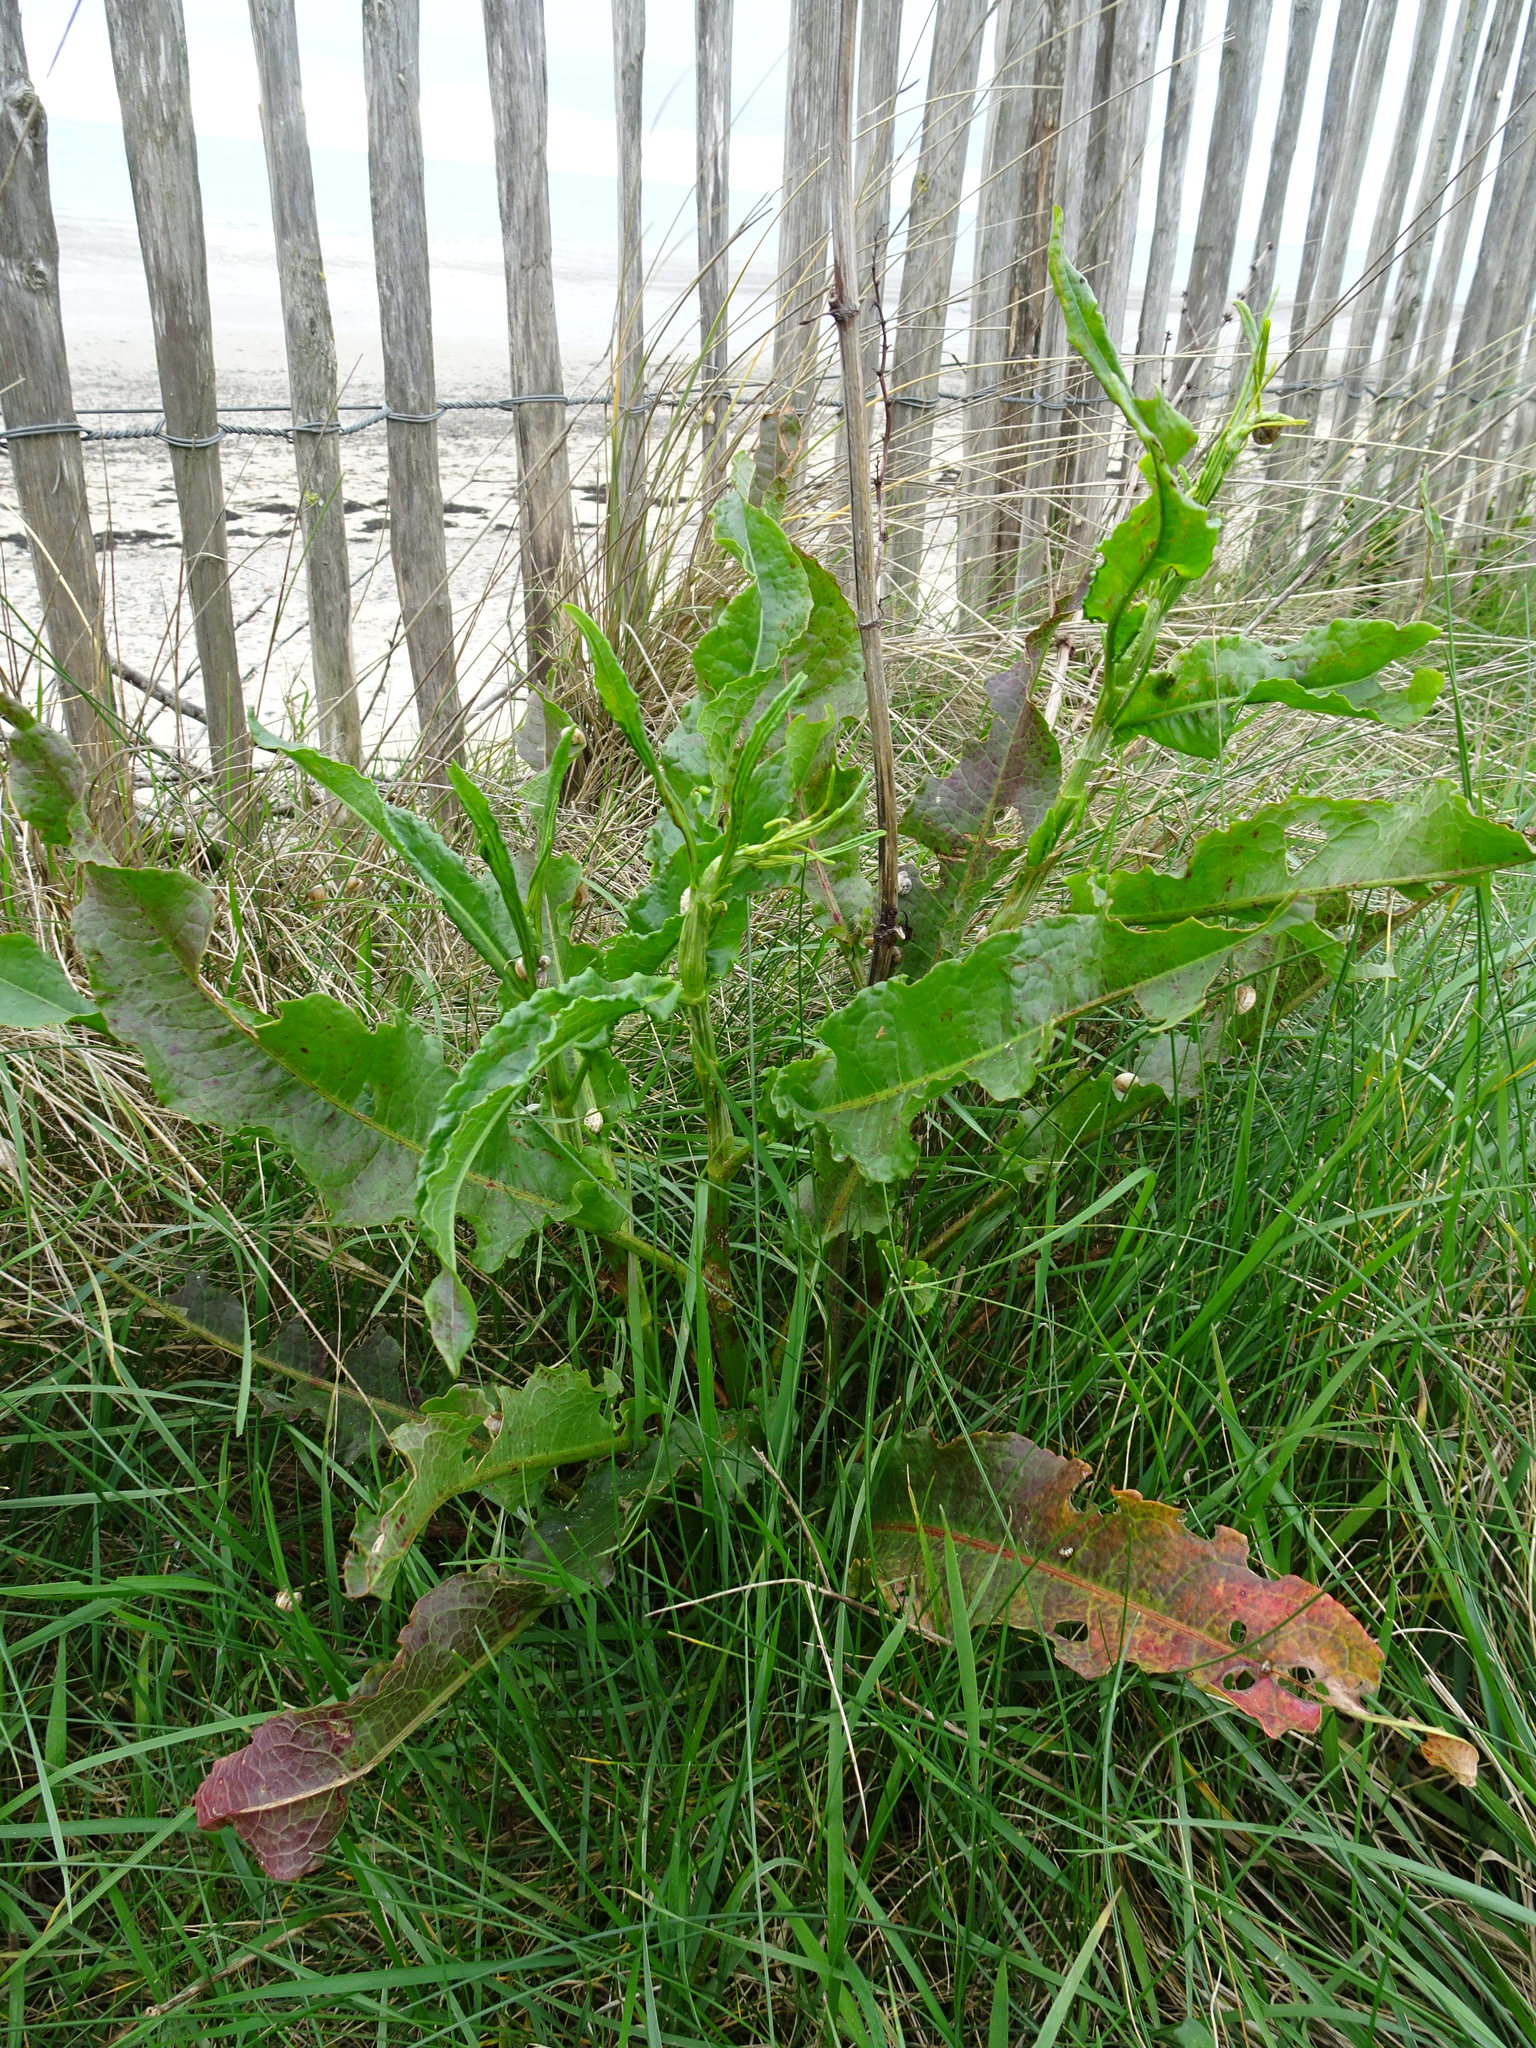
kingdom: Plantae
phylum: Tracheophyta
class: Magnoliopsida
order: Caryophyllales
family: Polygonaceae
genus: Rumex
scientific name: Rumex crispus
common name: Curled dock
